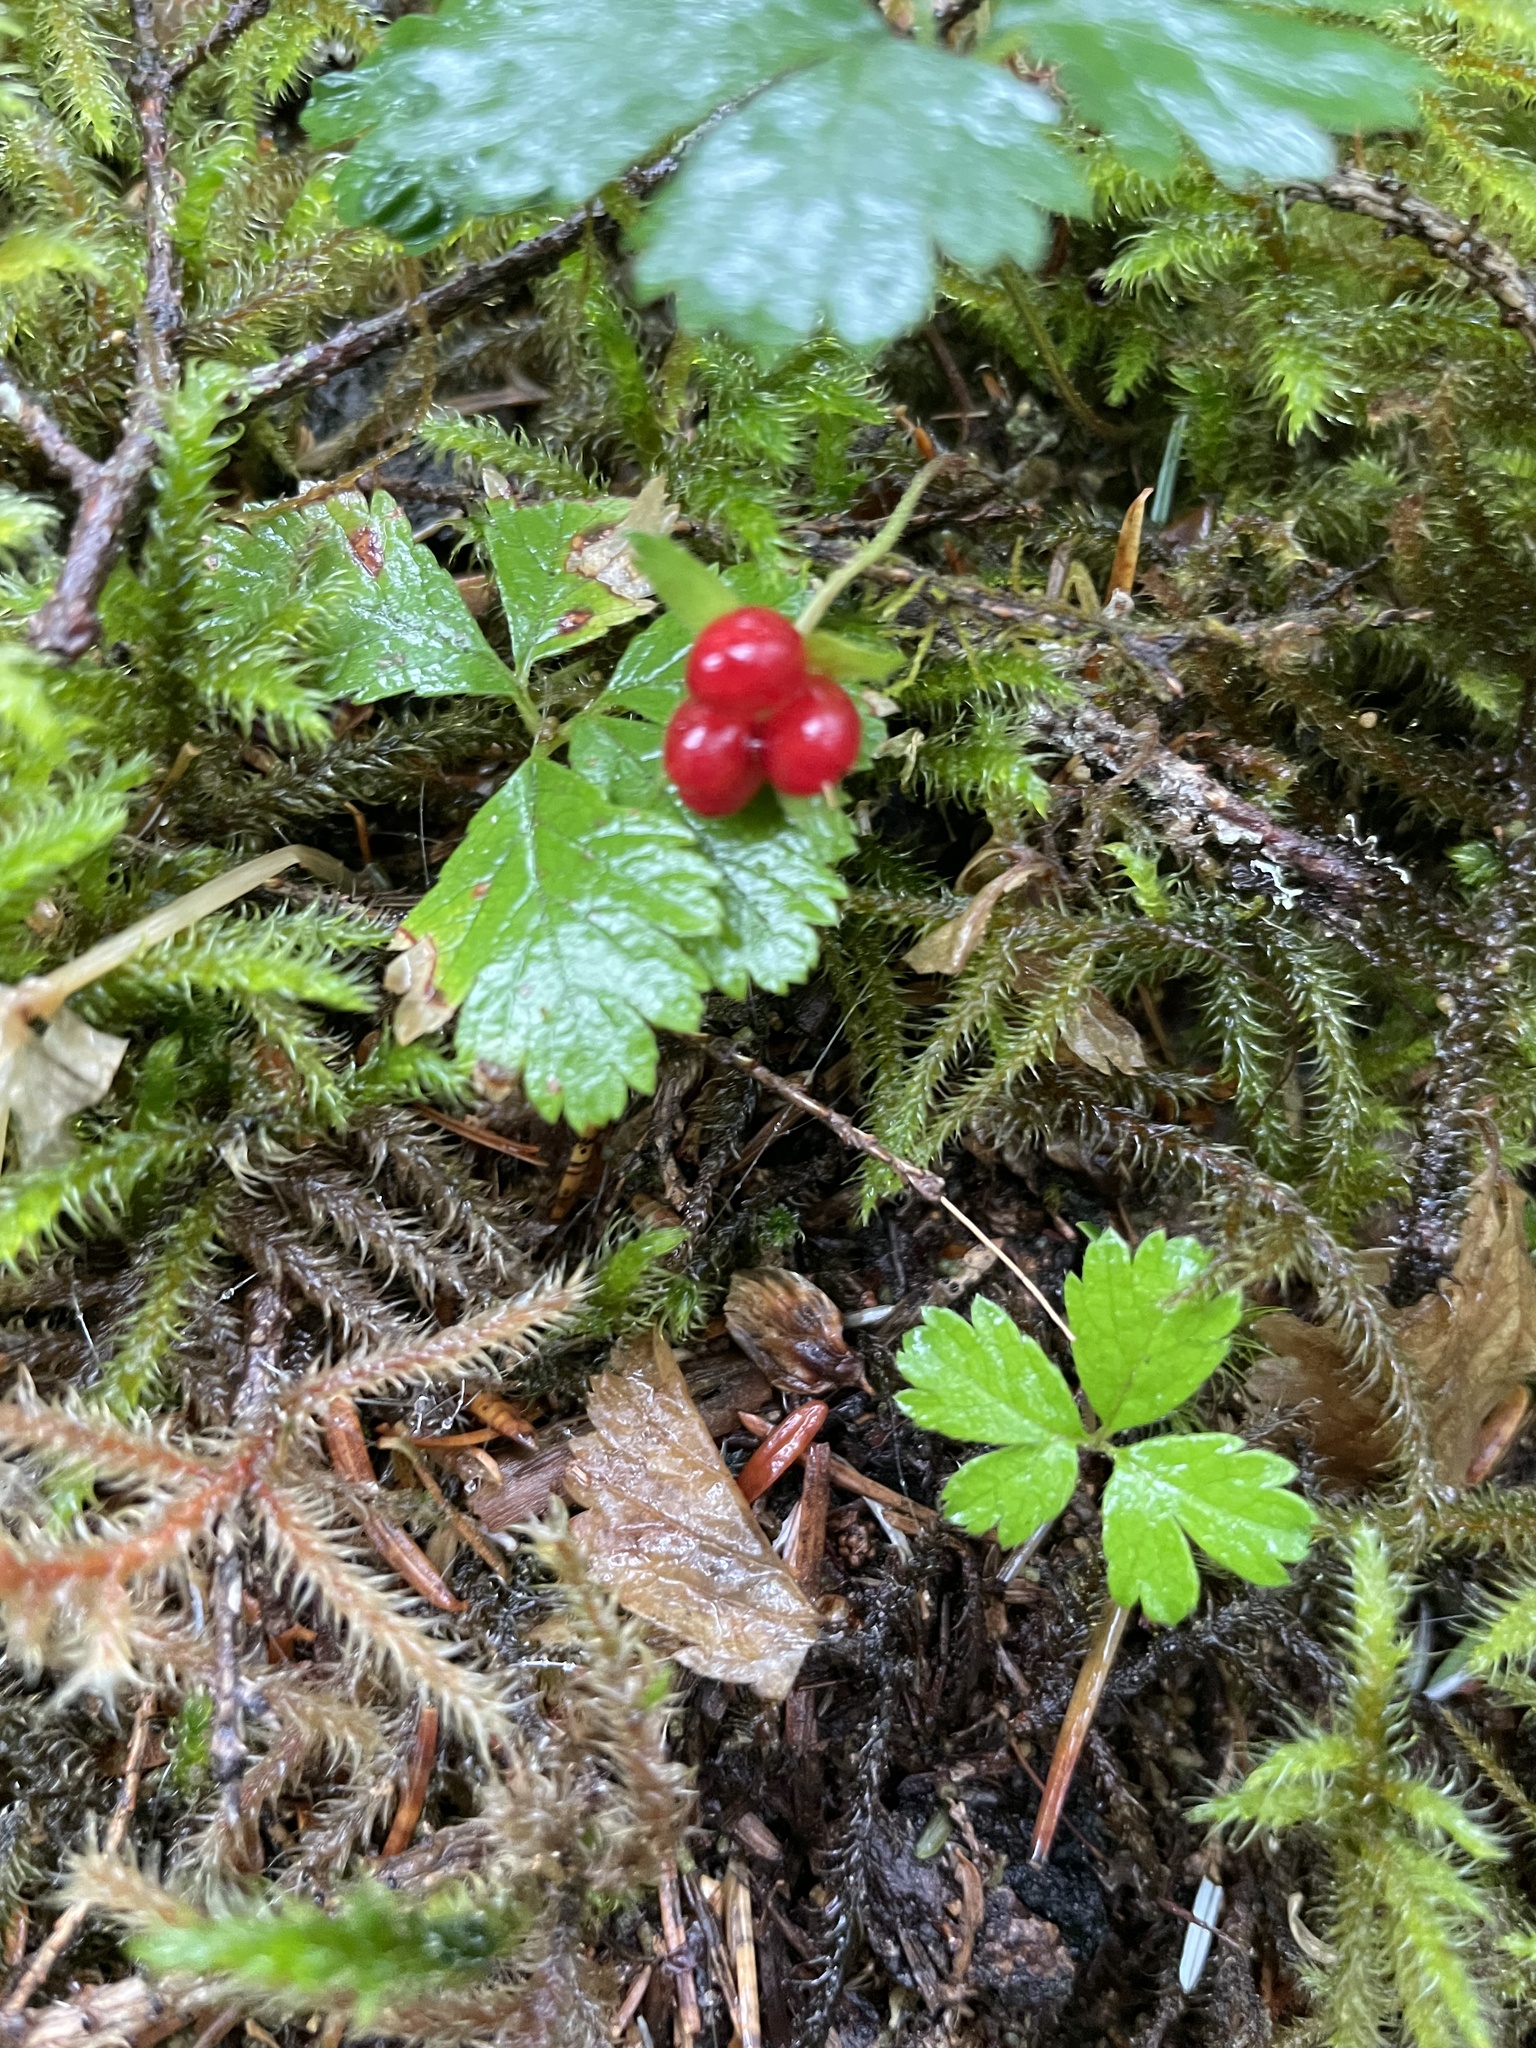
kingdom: Plantae
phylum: Tracheophyta
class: Magnoliopsida
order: Rosales
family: Rosaceae
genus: Rubus
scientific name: Rubus pedatus
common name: Creeping raspberry
